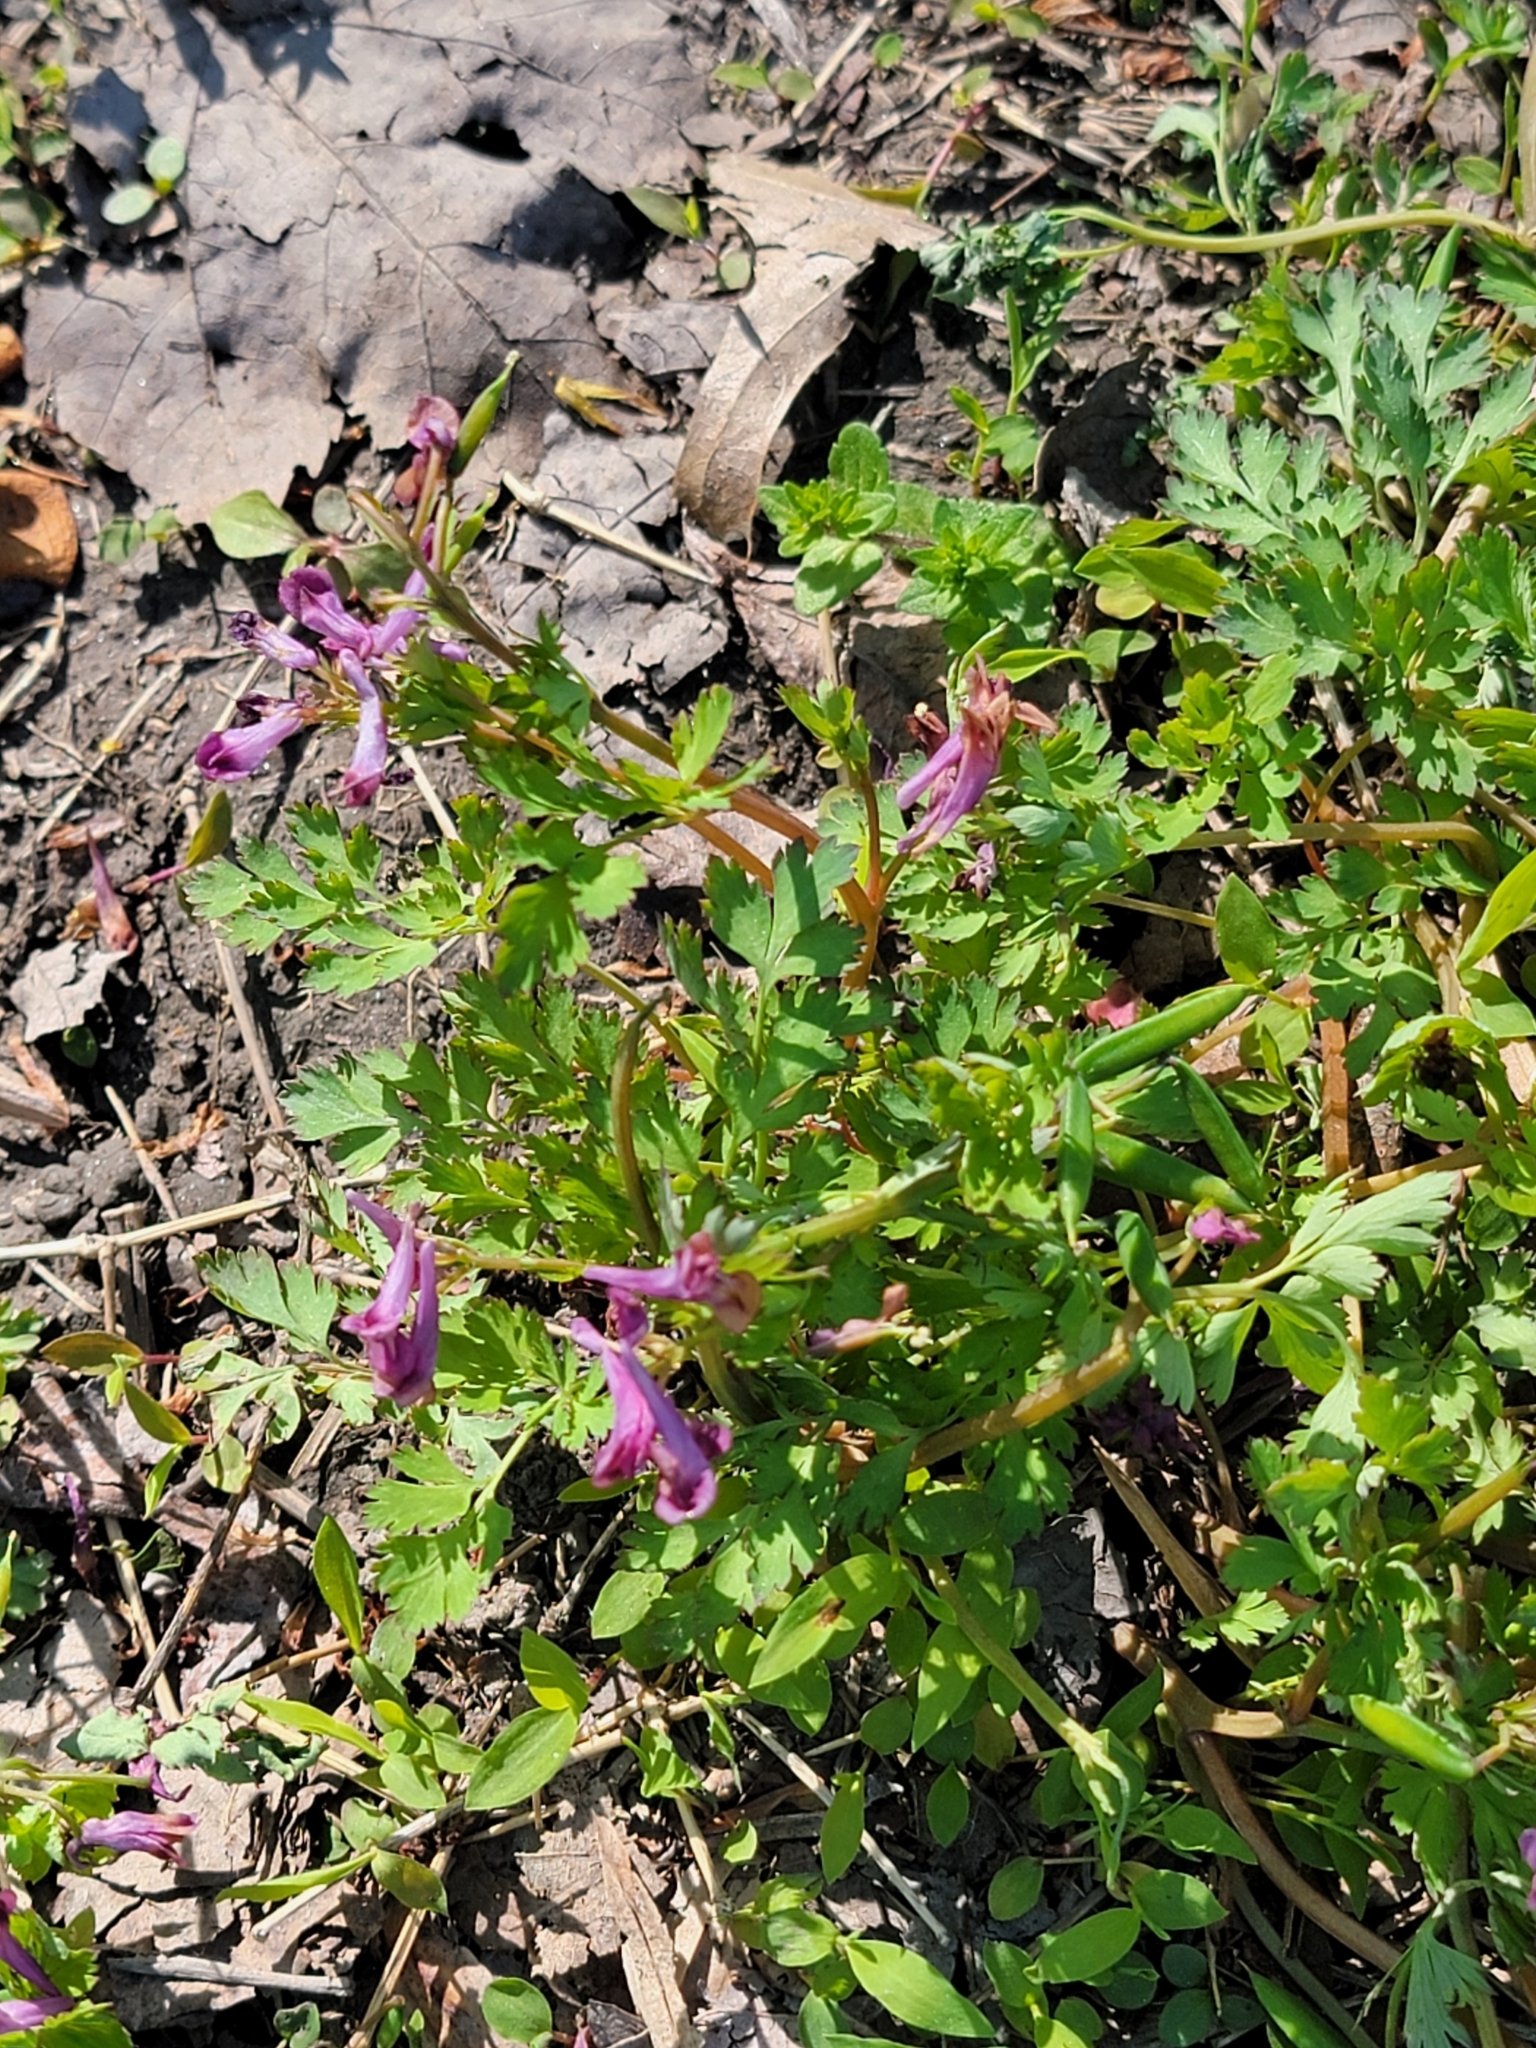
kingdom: Plantae
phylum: Tracheophyta
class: Magnoliopsida
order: Ranunculales
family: Papaveraceae
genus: Corydalis
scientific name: Corydalis incisa
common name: Incised fumewort
